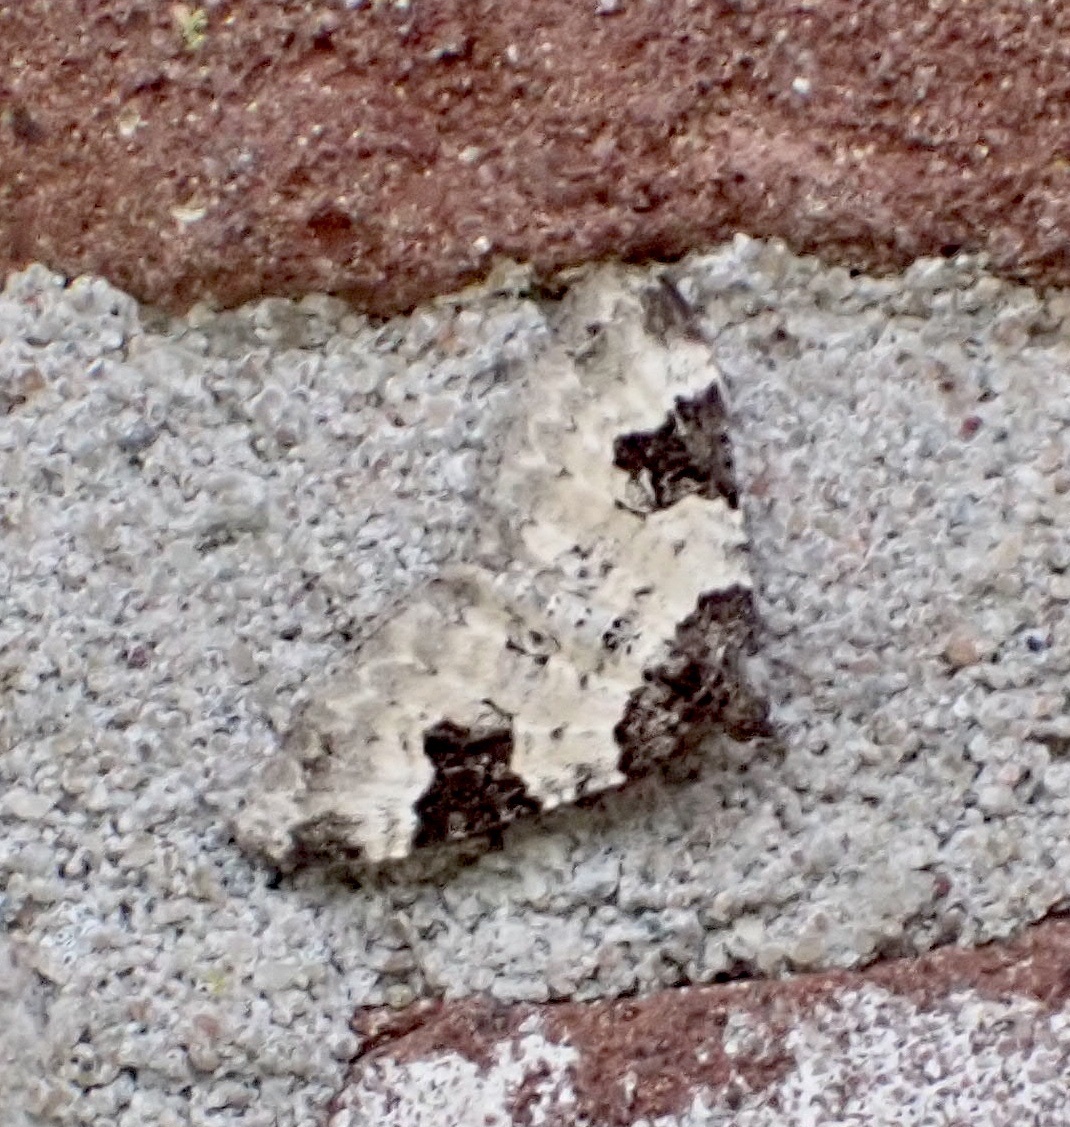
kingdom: Animalia
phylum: Arthropoda
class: Insecta
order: Lepidoptera
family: Geometridae
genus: Xanthorhoe
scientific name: Xanthorhoe fluctuata
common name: Garden carpet
